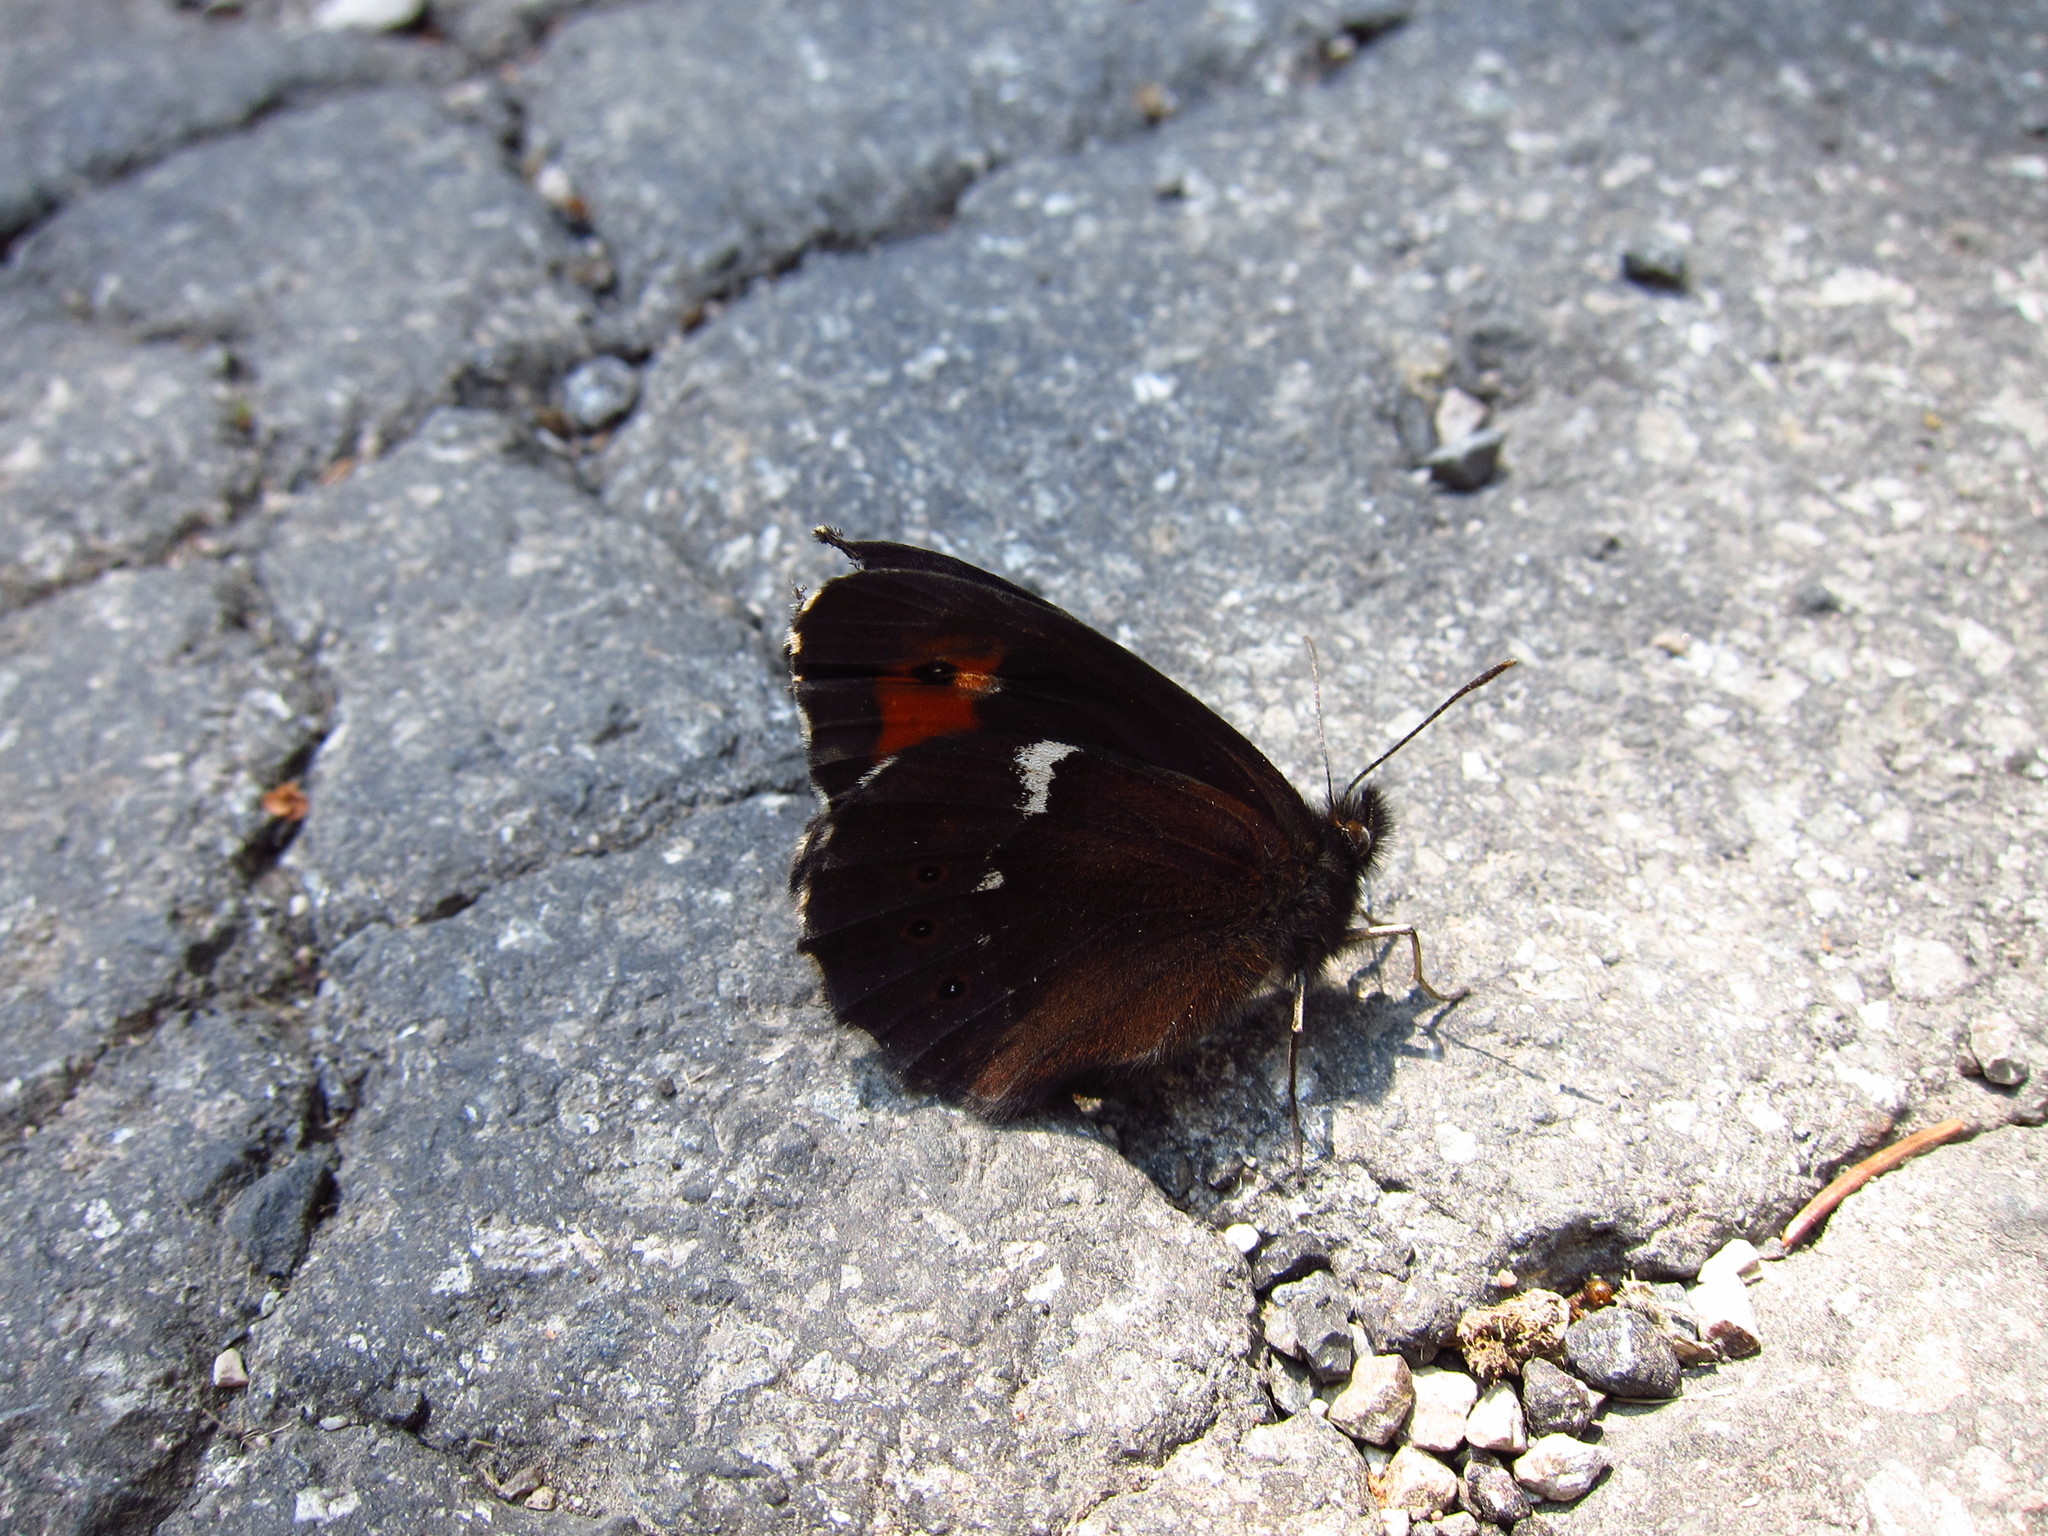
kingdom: Animalia
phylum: Arthropoda
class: Insecta
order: Lepidoptera
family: Nymphalidae
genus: Erebia
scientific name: Erebia ligea
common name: Arran brown
